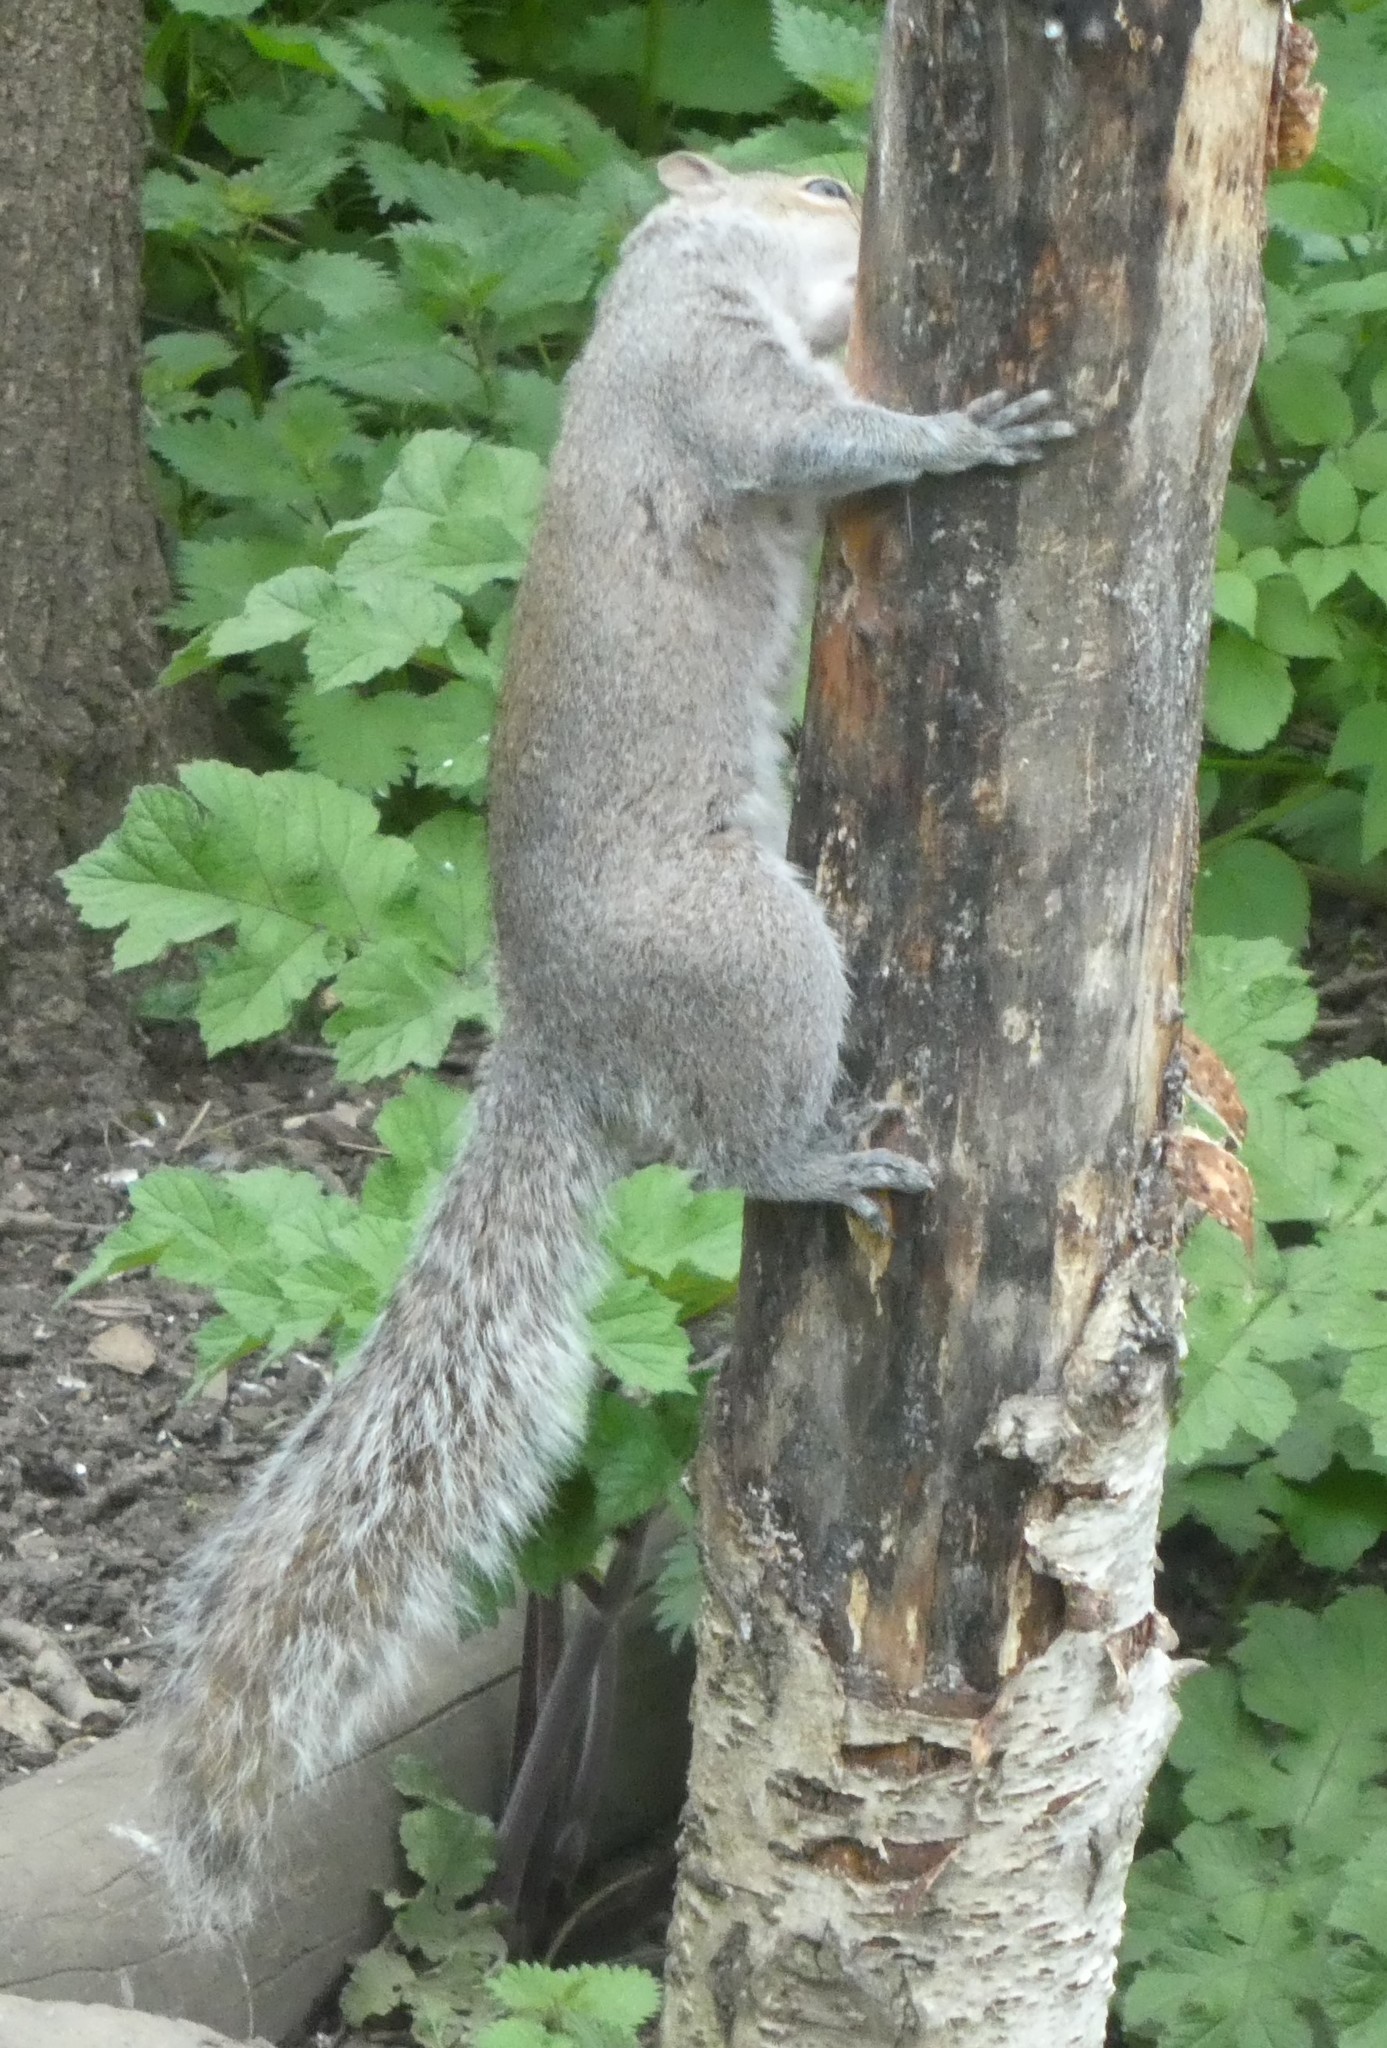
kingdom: Animalia
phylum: Chordata
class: Mammalia
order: Rodentia
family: Sciuridae
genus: Sciurus
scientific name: Sciurus carolinensis
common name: Eastern gray squirrel
